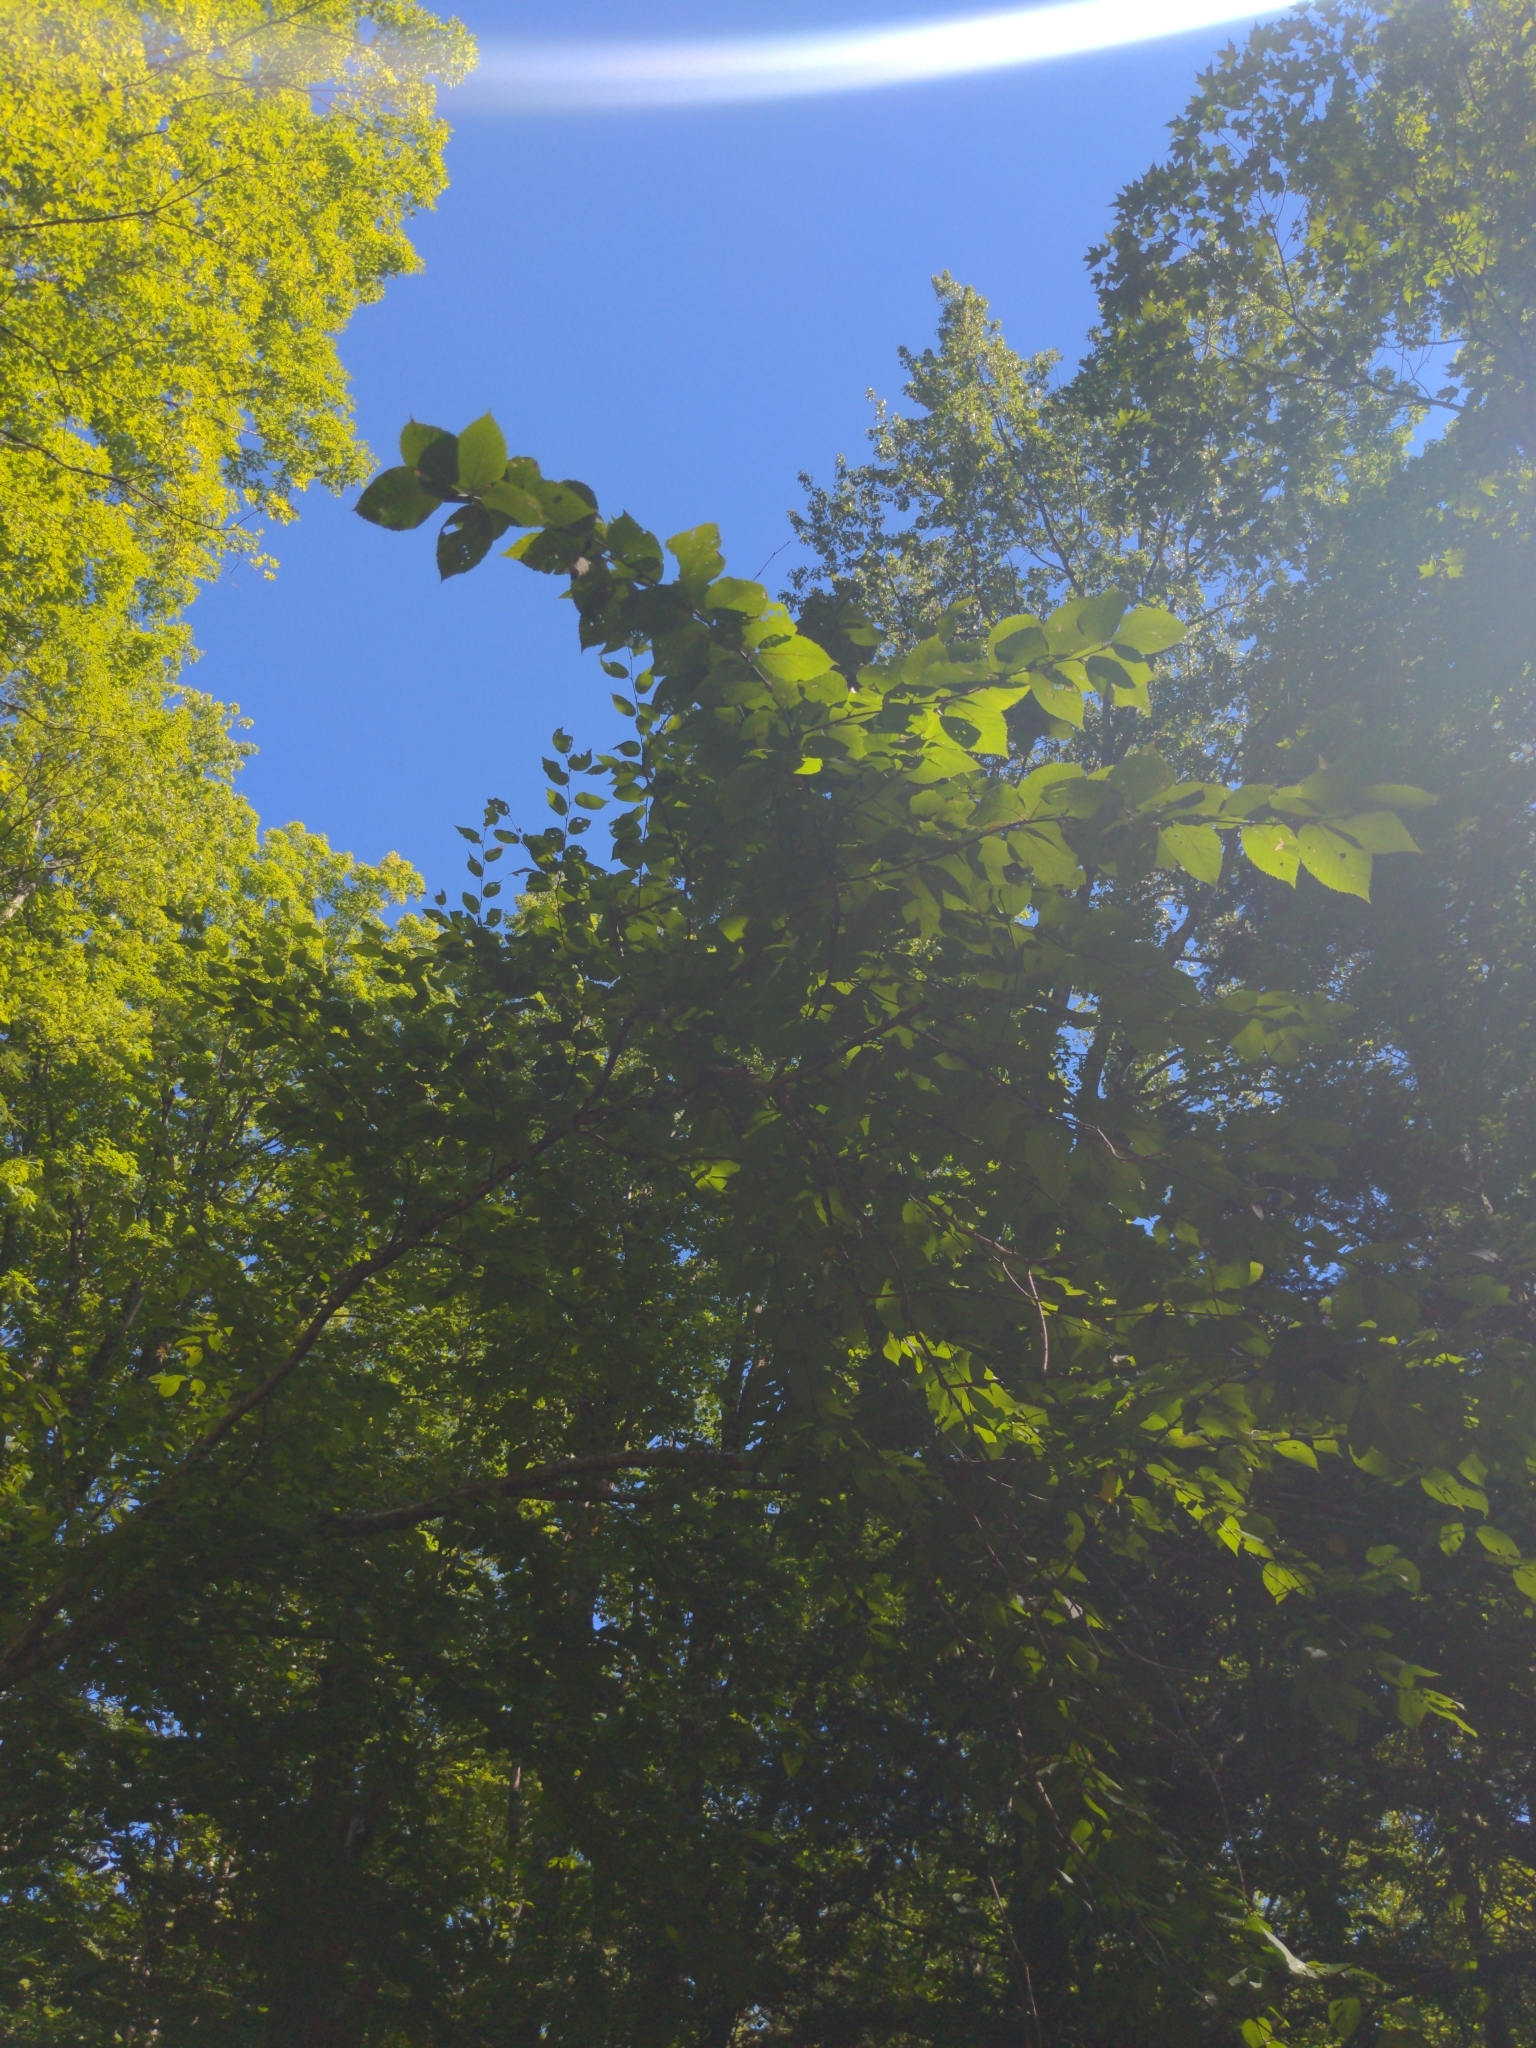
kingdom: Plantae
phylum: Tracheophyta
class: Magnoliopsida
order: Fagales
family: Betulaceae
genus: Betula
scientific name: Betula alleghaniensis
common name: Yellow birch
